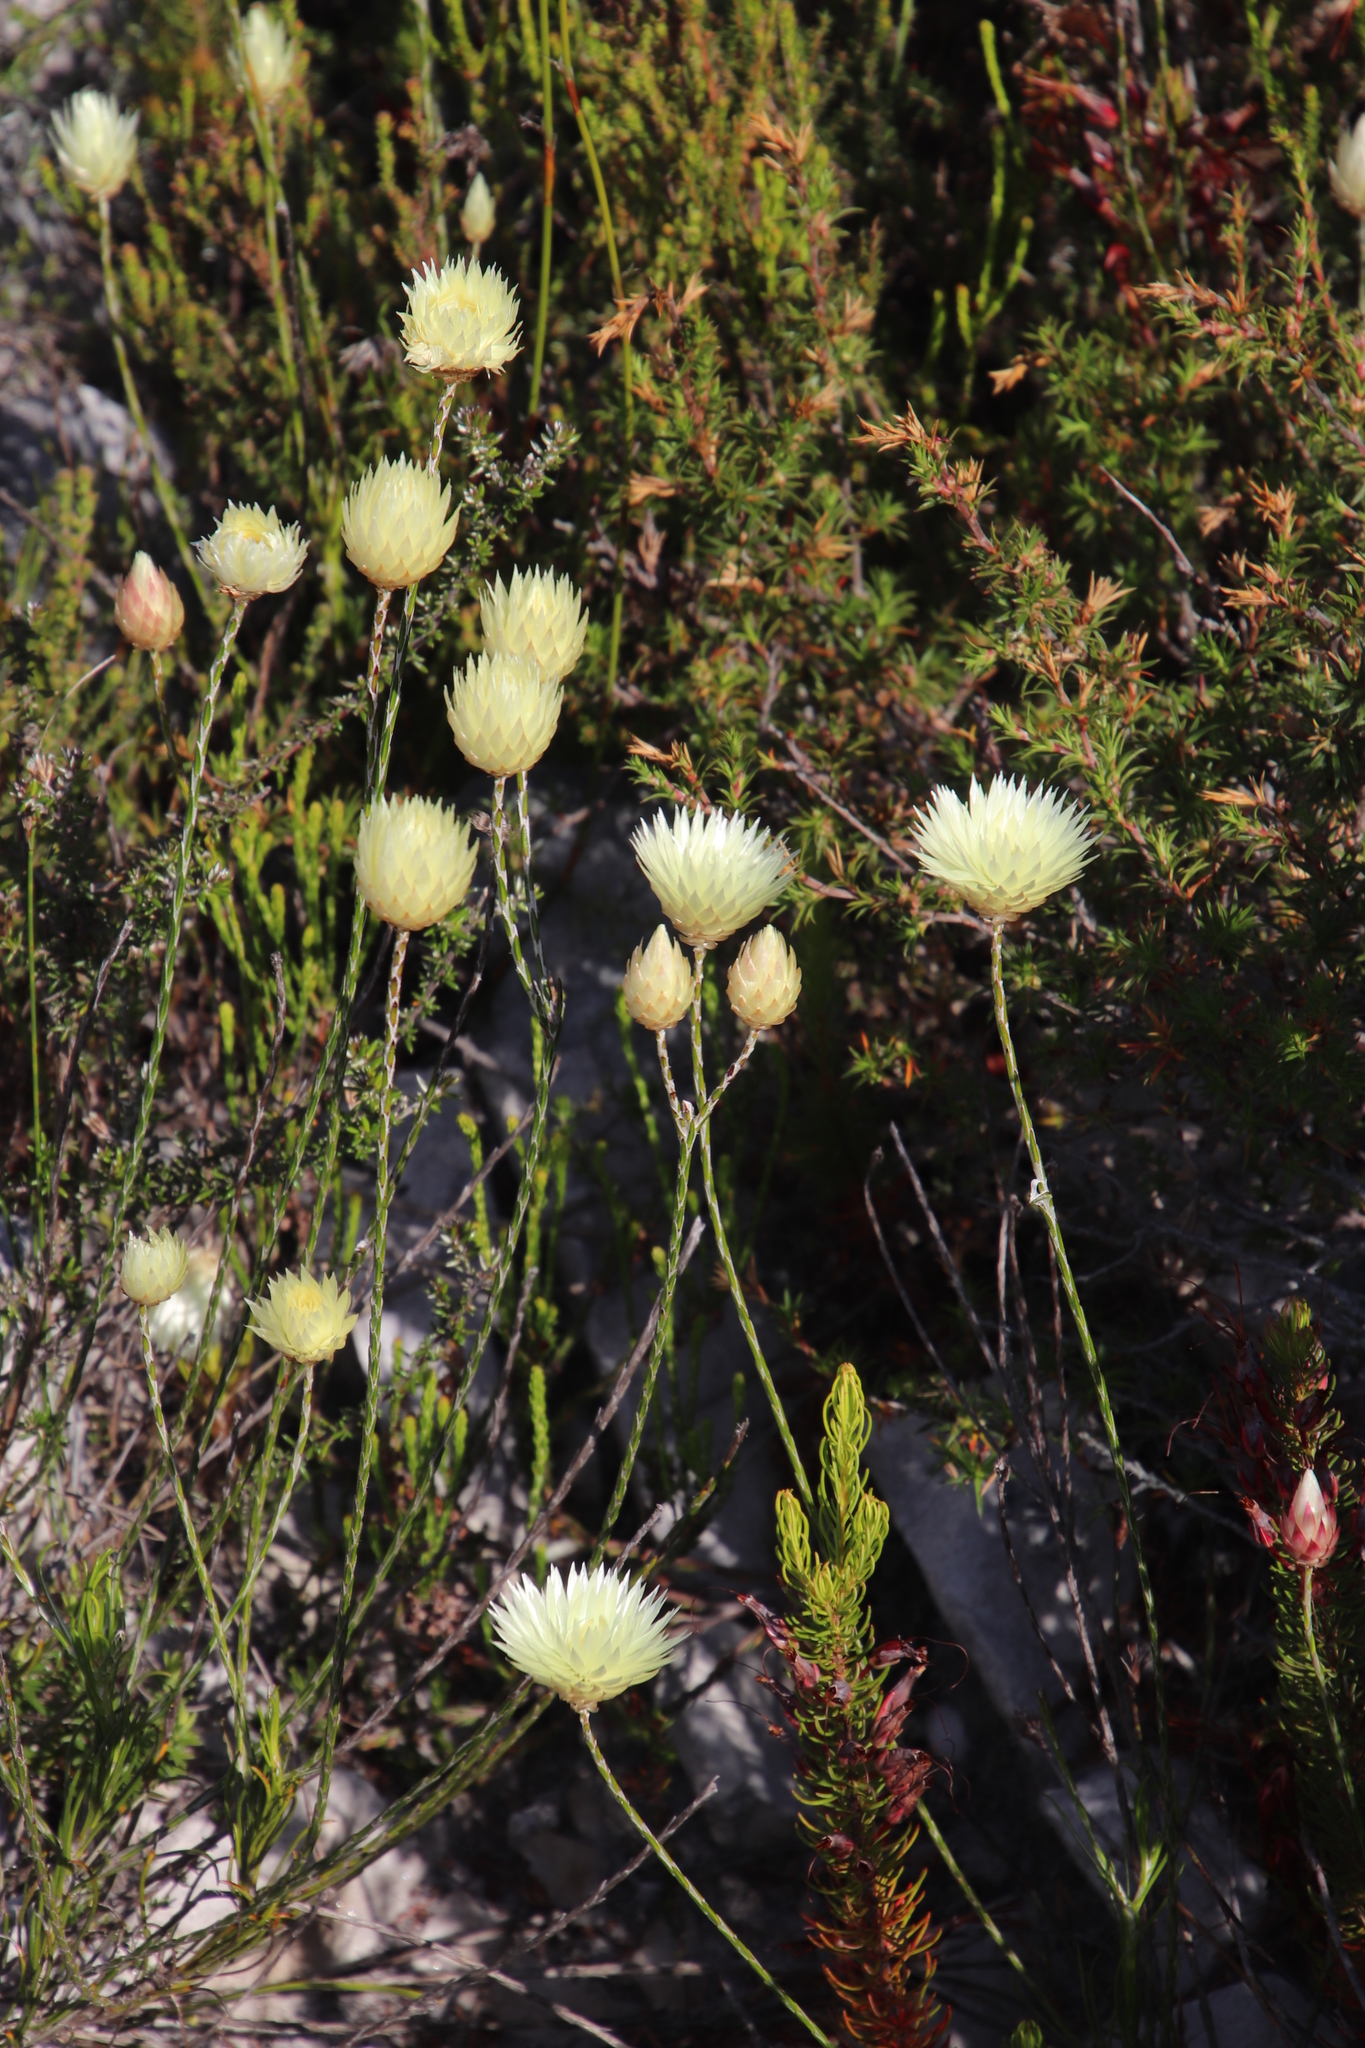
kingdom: Plantae
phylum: Tracheophyta
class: Magnoliopsida
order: Asterales
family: Asteraceae
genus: Edmondia
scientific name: Edmondia sesamoides
